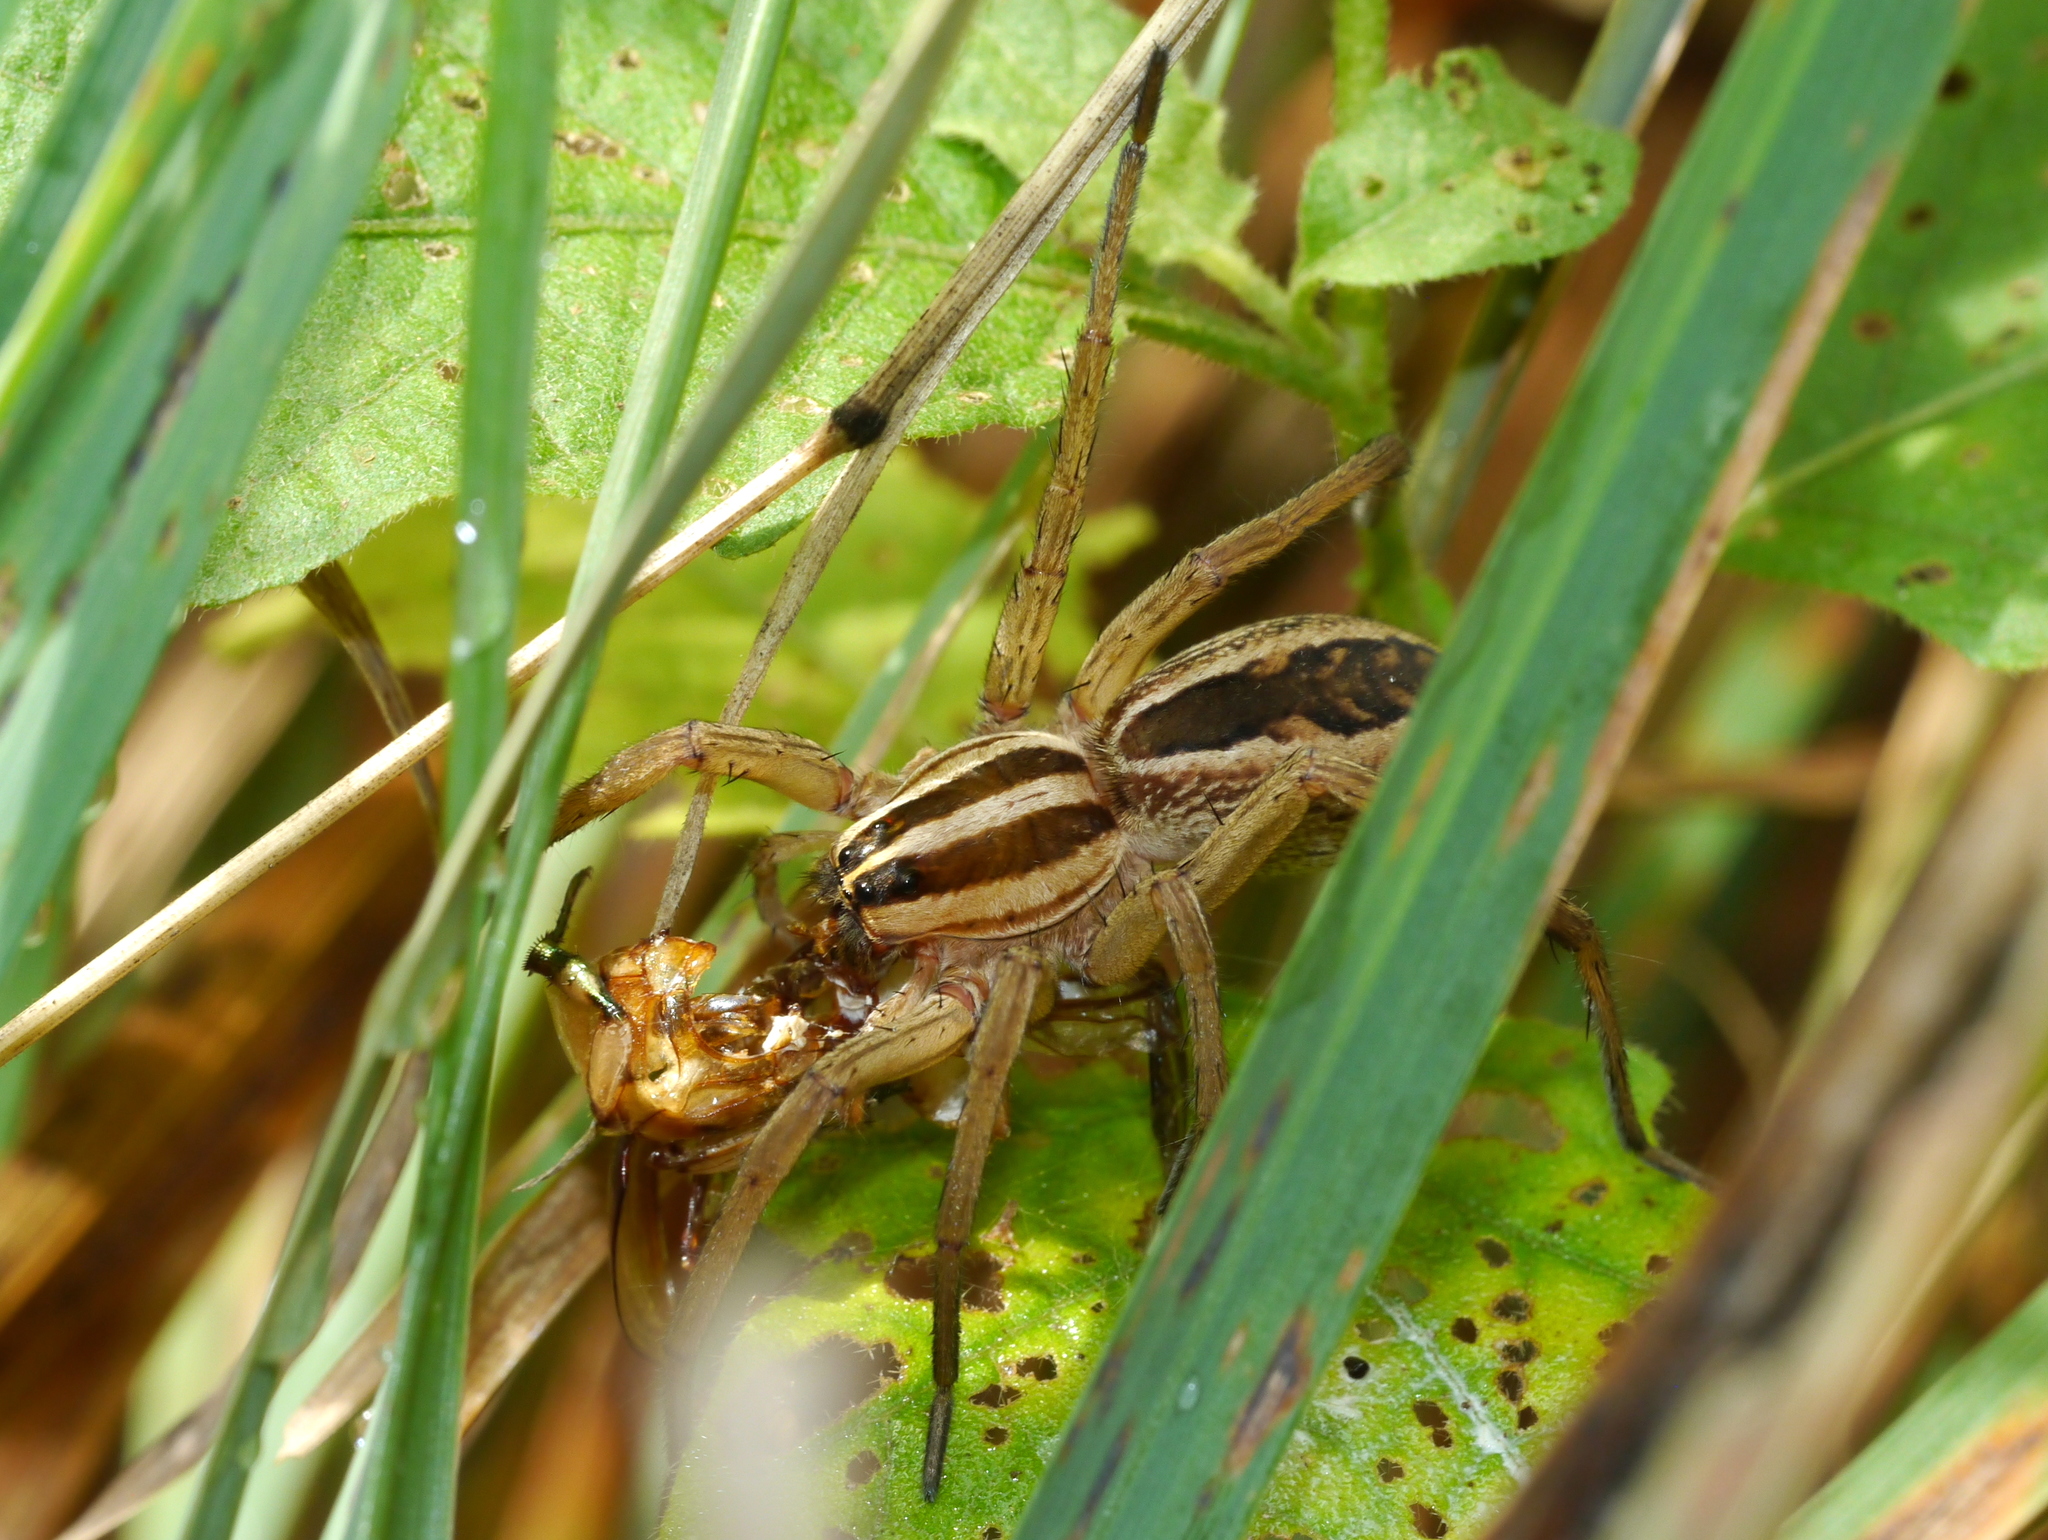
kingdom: Animalia
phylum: Arthropoda
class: Arachnida
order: Araneae
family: Lycosidae
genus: Rabidosa
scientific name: Rabidosa rabida
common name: Rabid wolf spider
